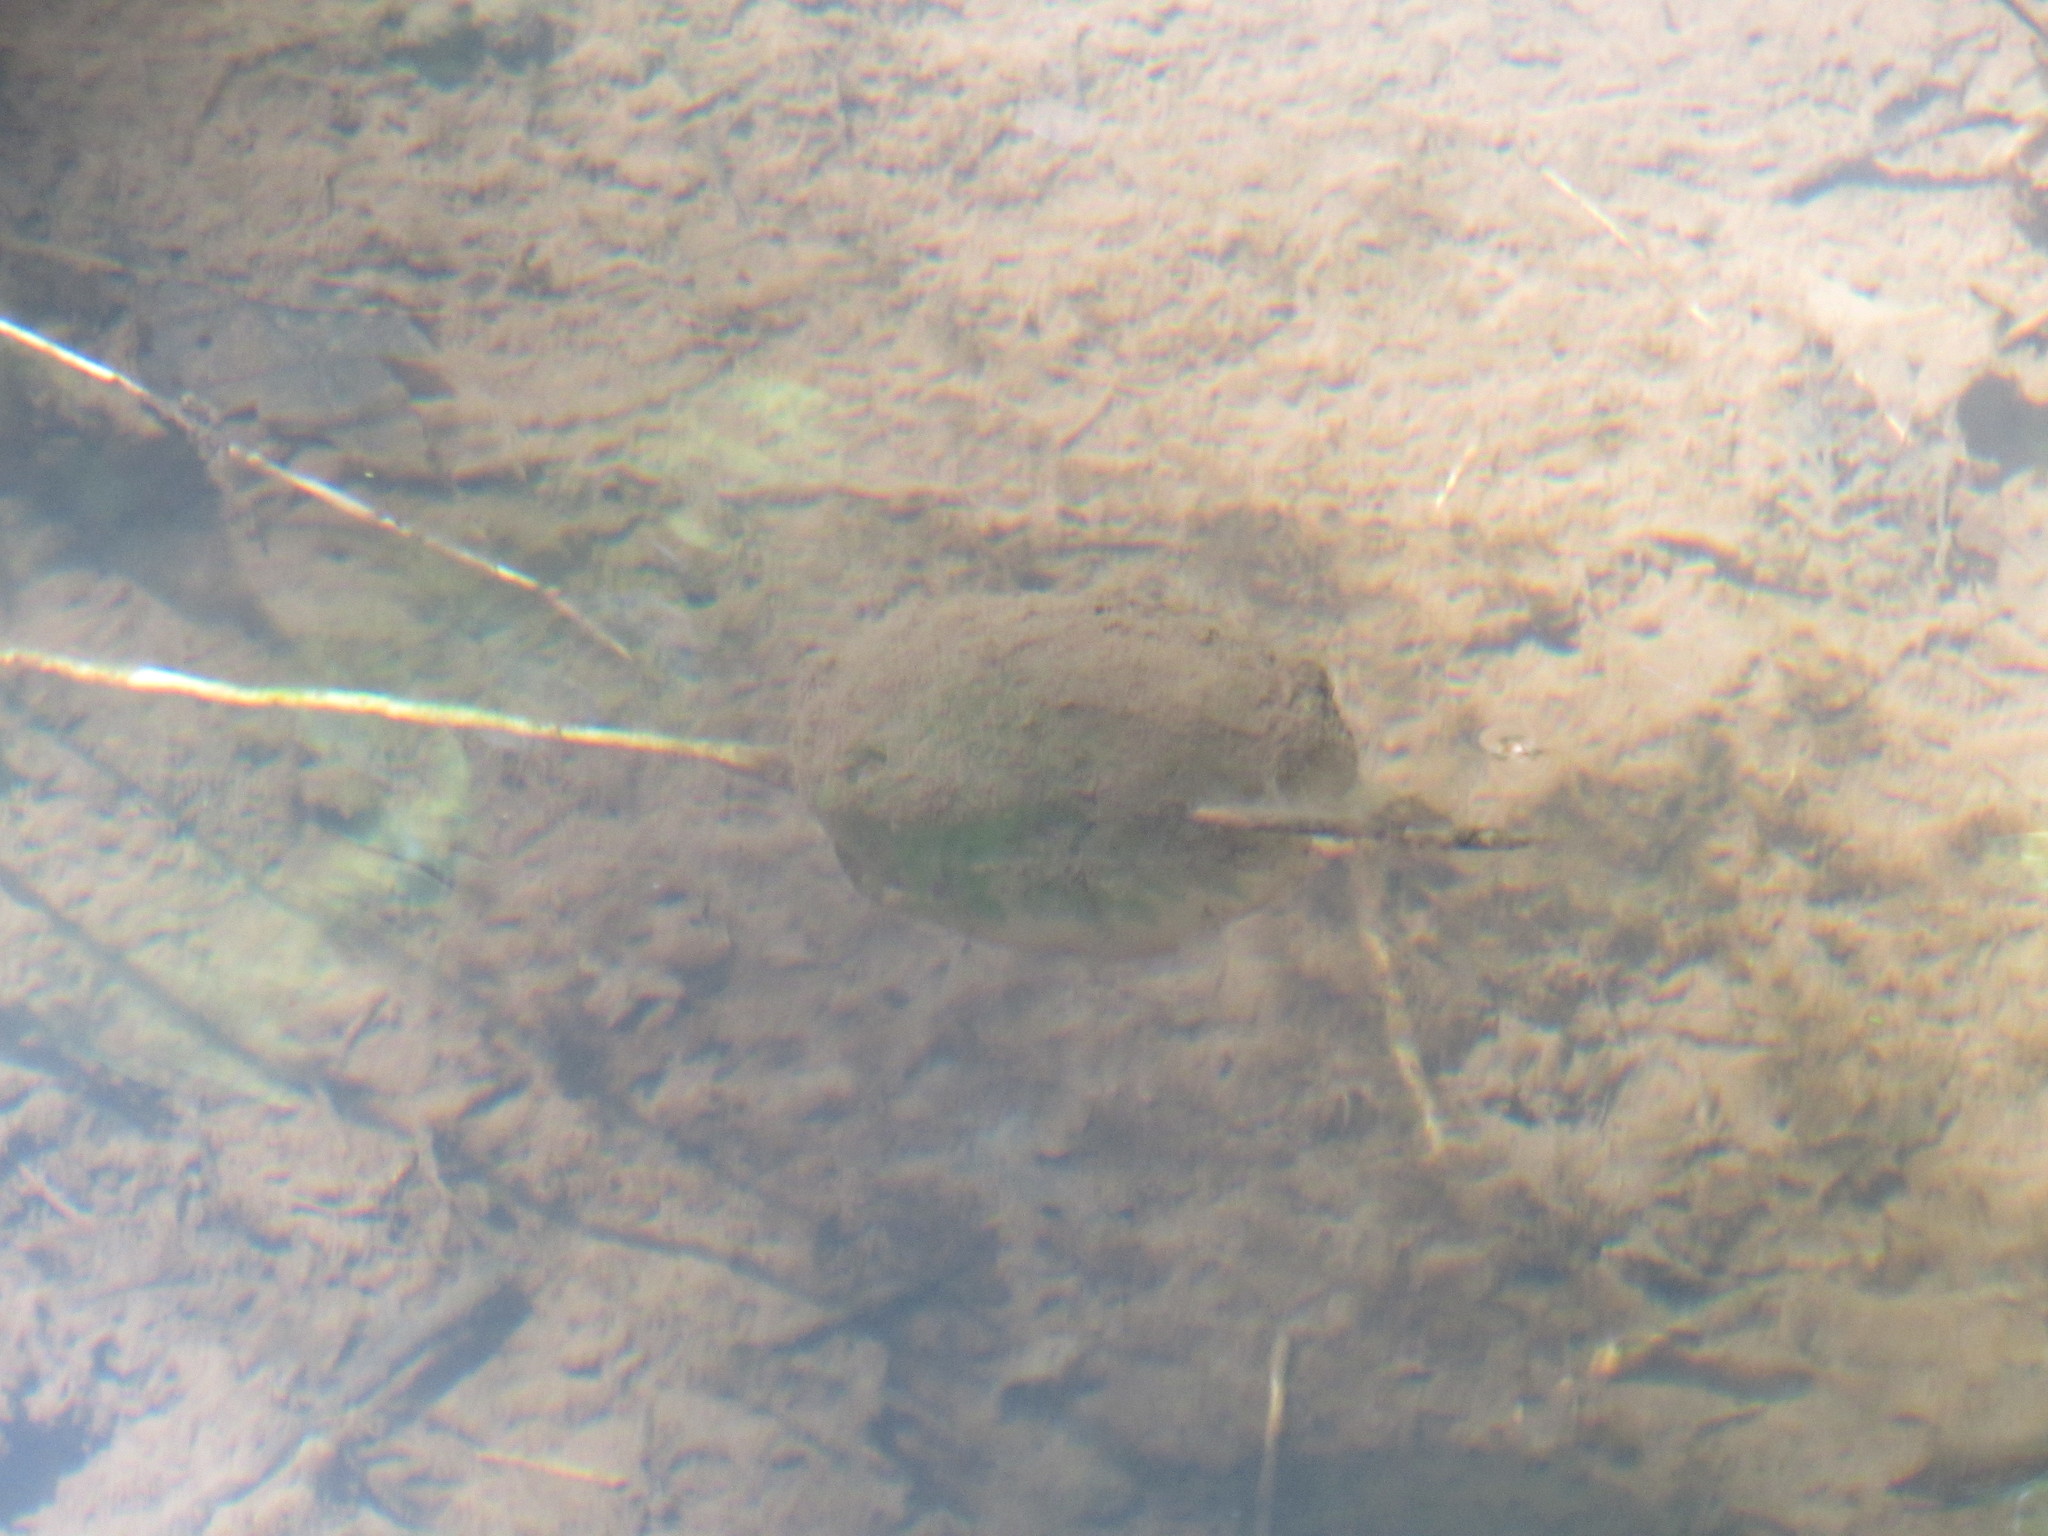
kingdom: Animalia
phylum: Chordata
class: Amphibia
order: Caudata
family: Ambystomatidae
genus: Ambystoma
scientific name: Ambystoma gracile
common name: Northwestern salamander
